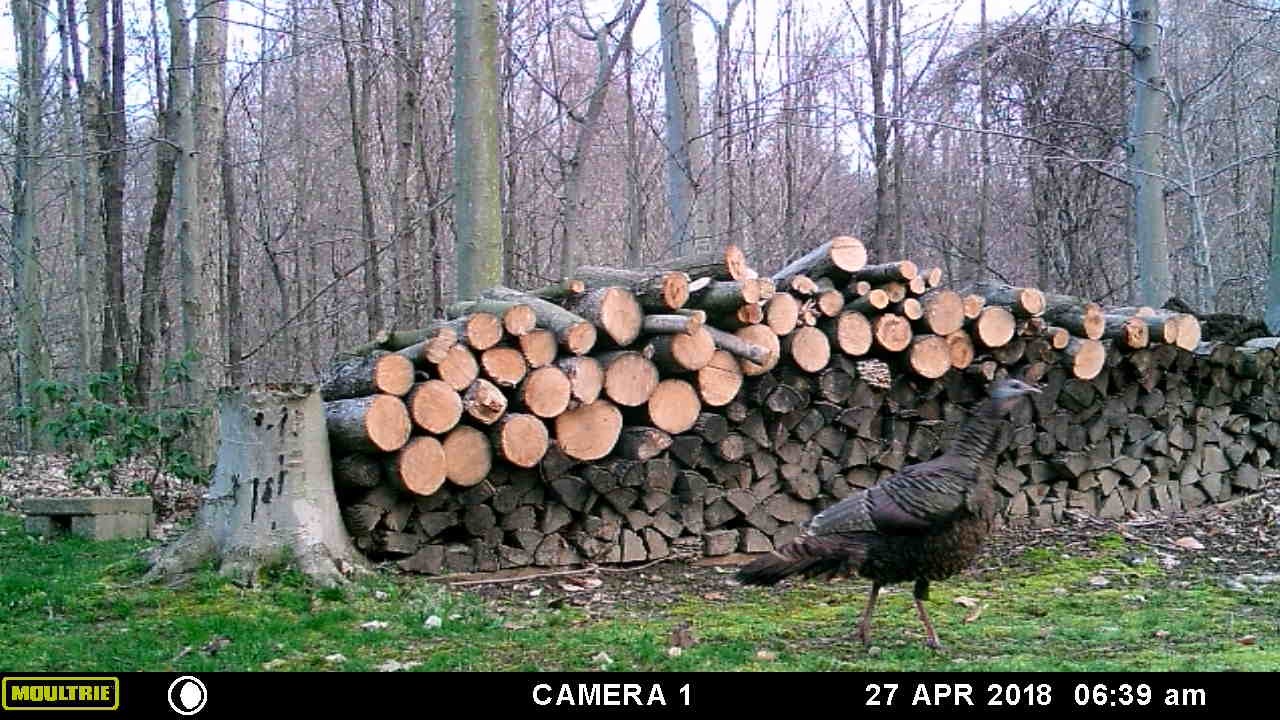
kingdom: Animalia
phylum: Chordata
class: Aves
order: Galliformes
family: Phasianidae
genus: Meleagris
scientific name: Meleagris gallopavo
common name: Wild turkey
